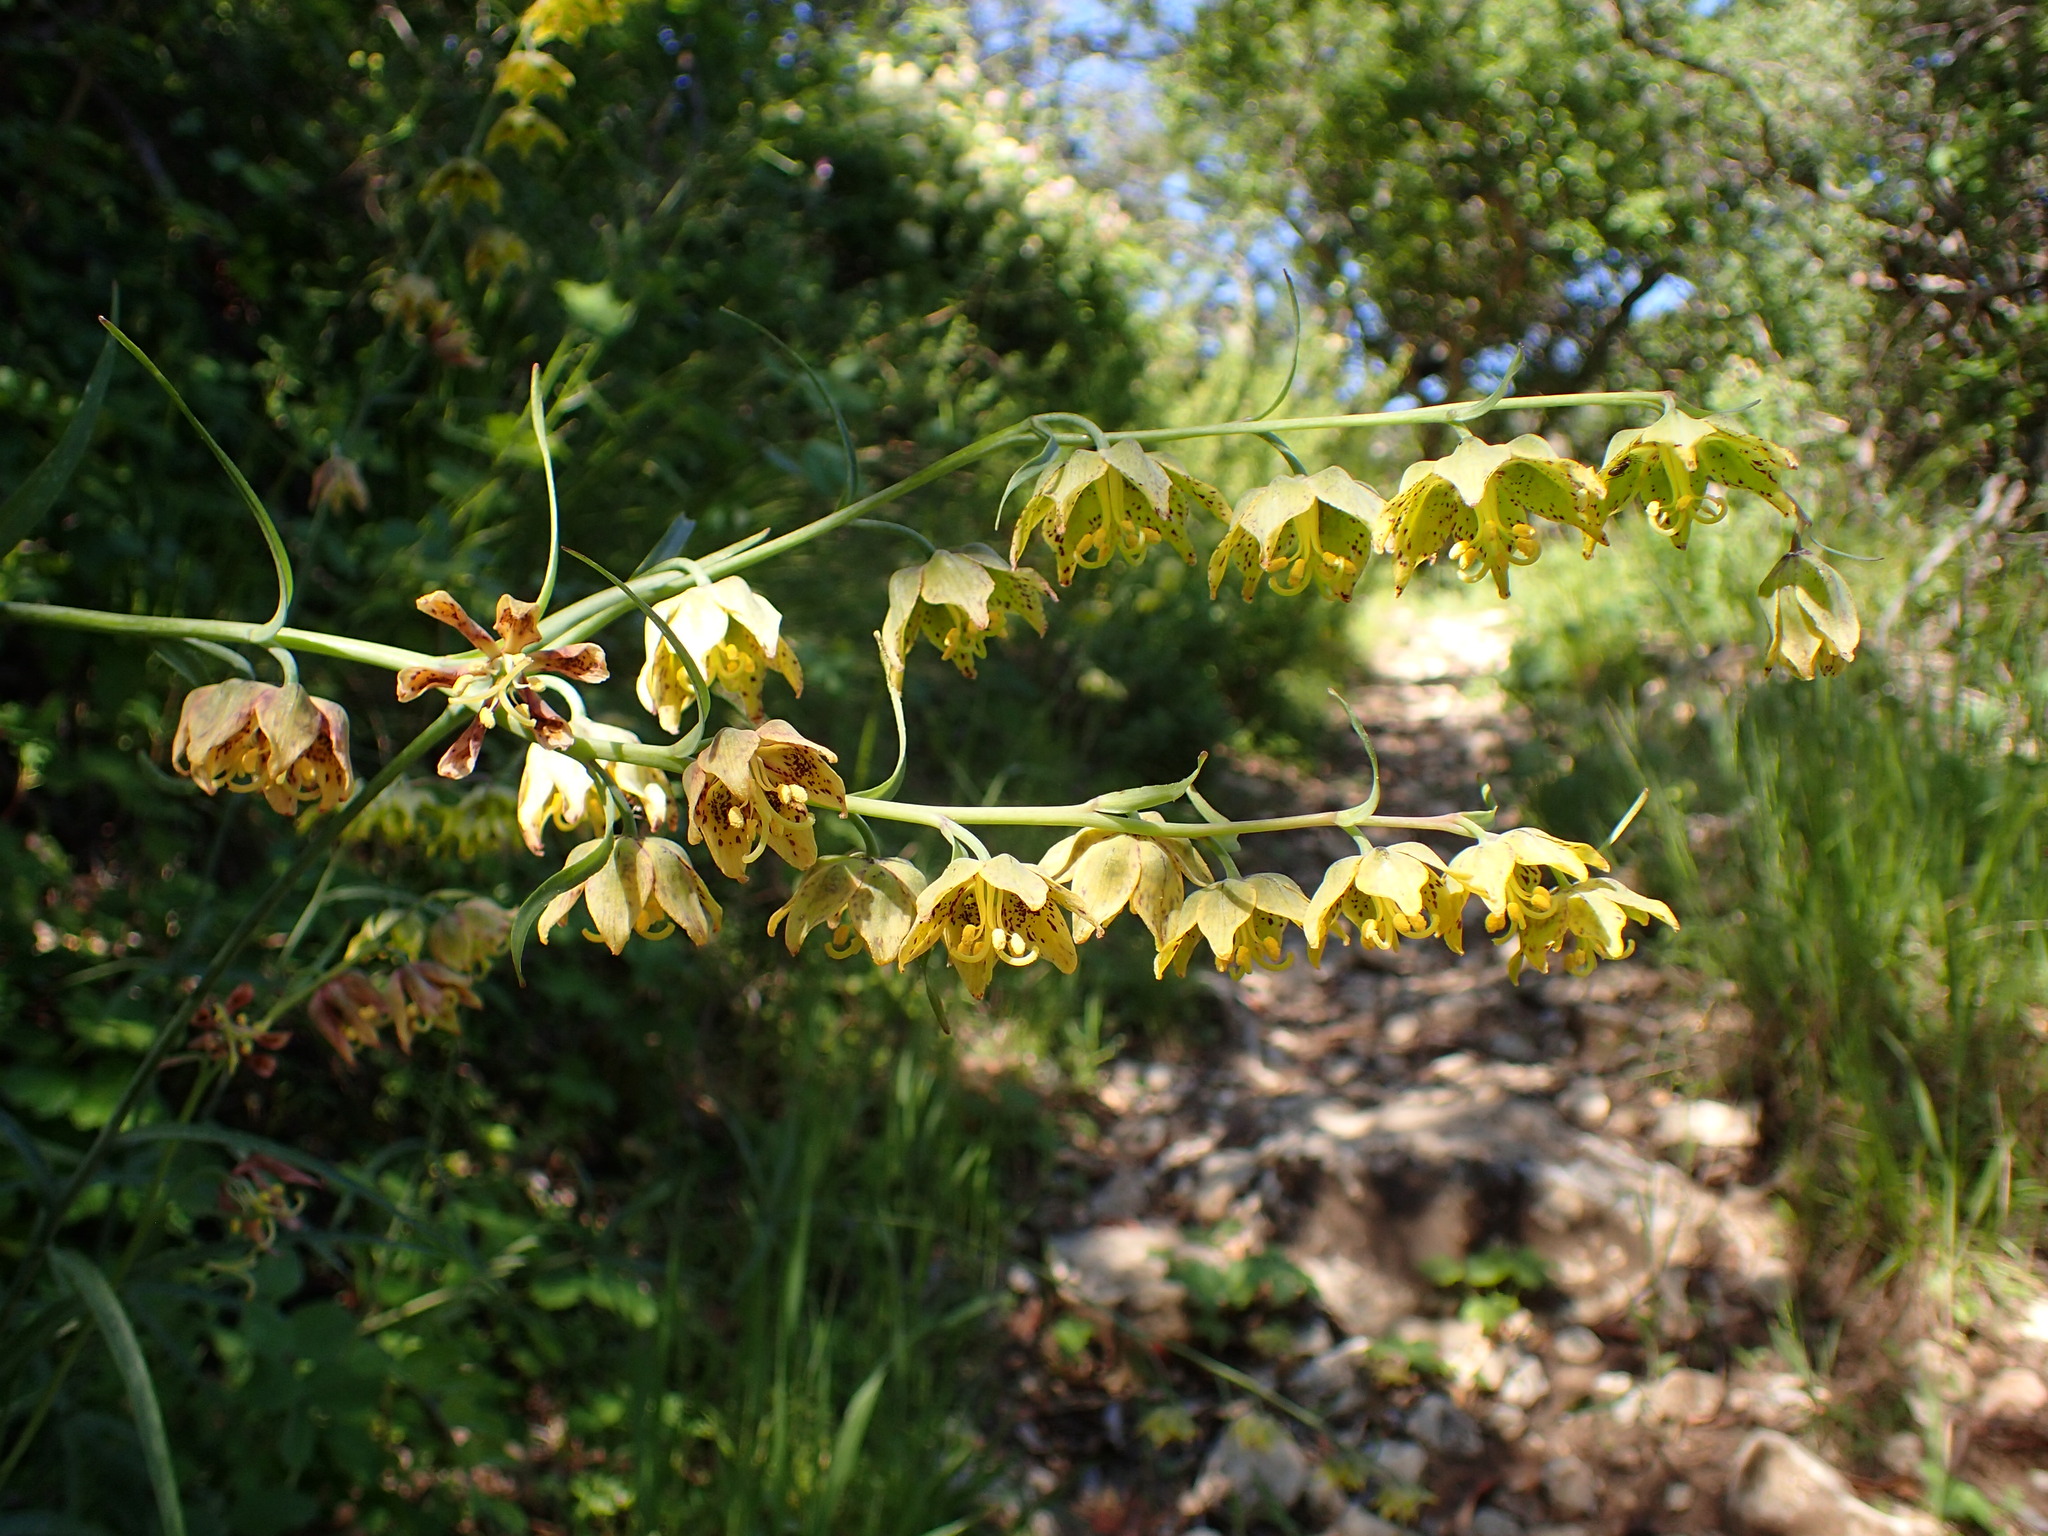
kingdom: Plantae
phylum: Tracheophyta
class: Liliopsida
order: Liliales
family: Liliaceae
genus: Fritillaria
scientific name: Fritillaria ojaiensis
